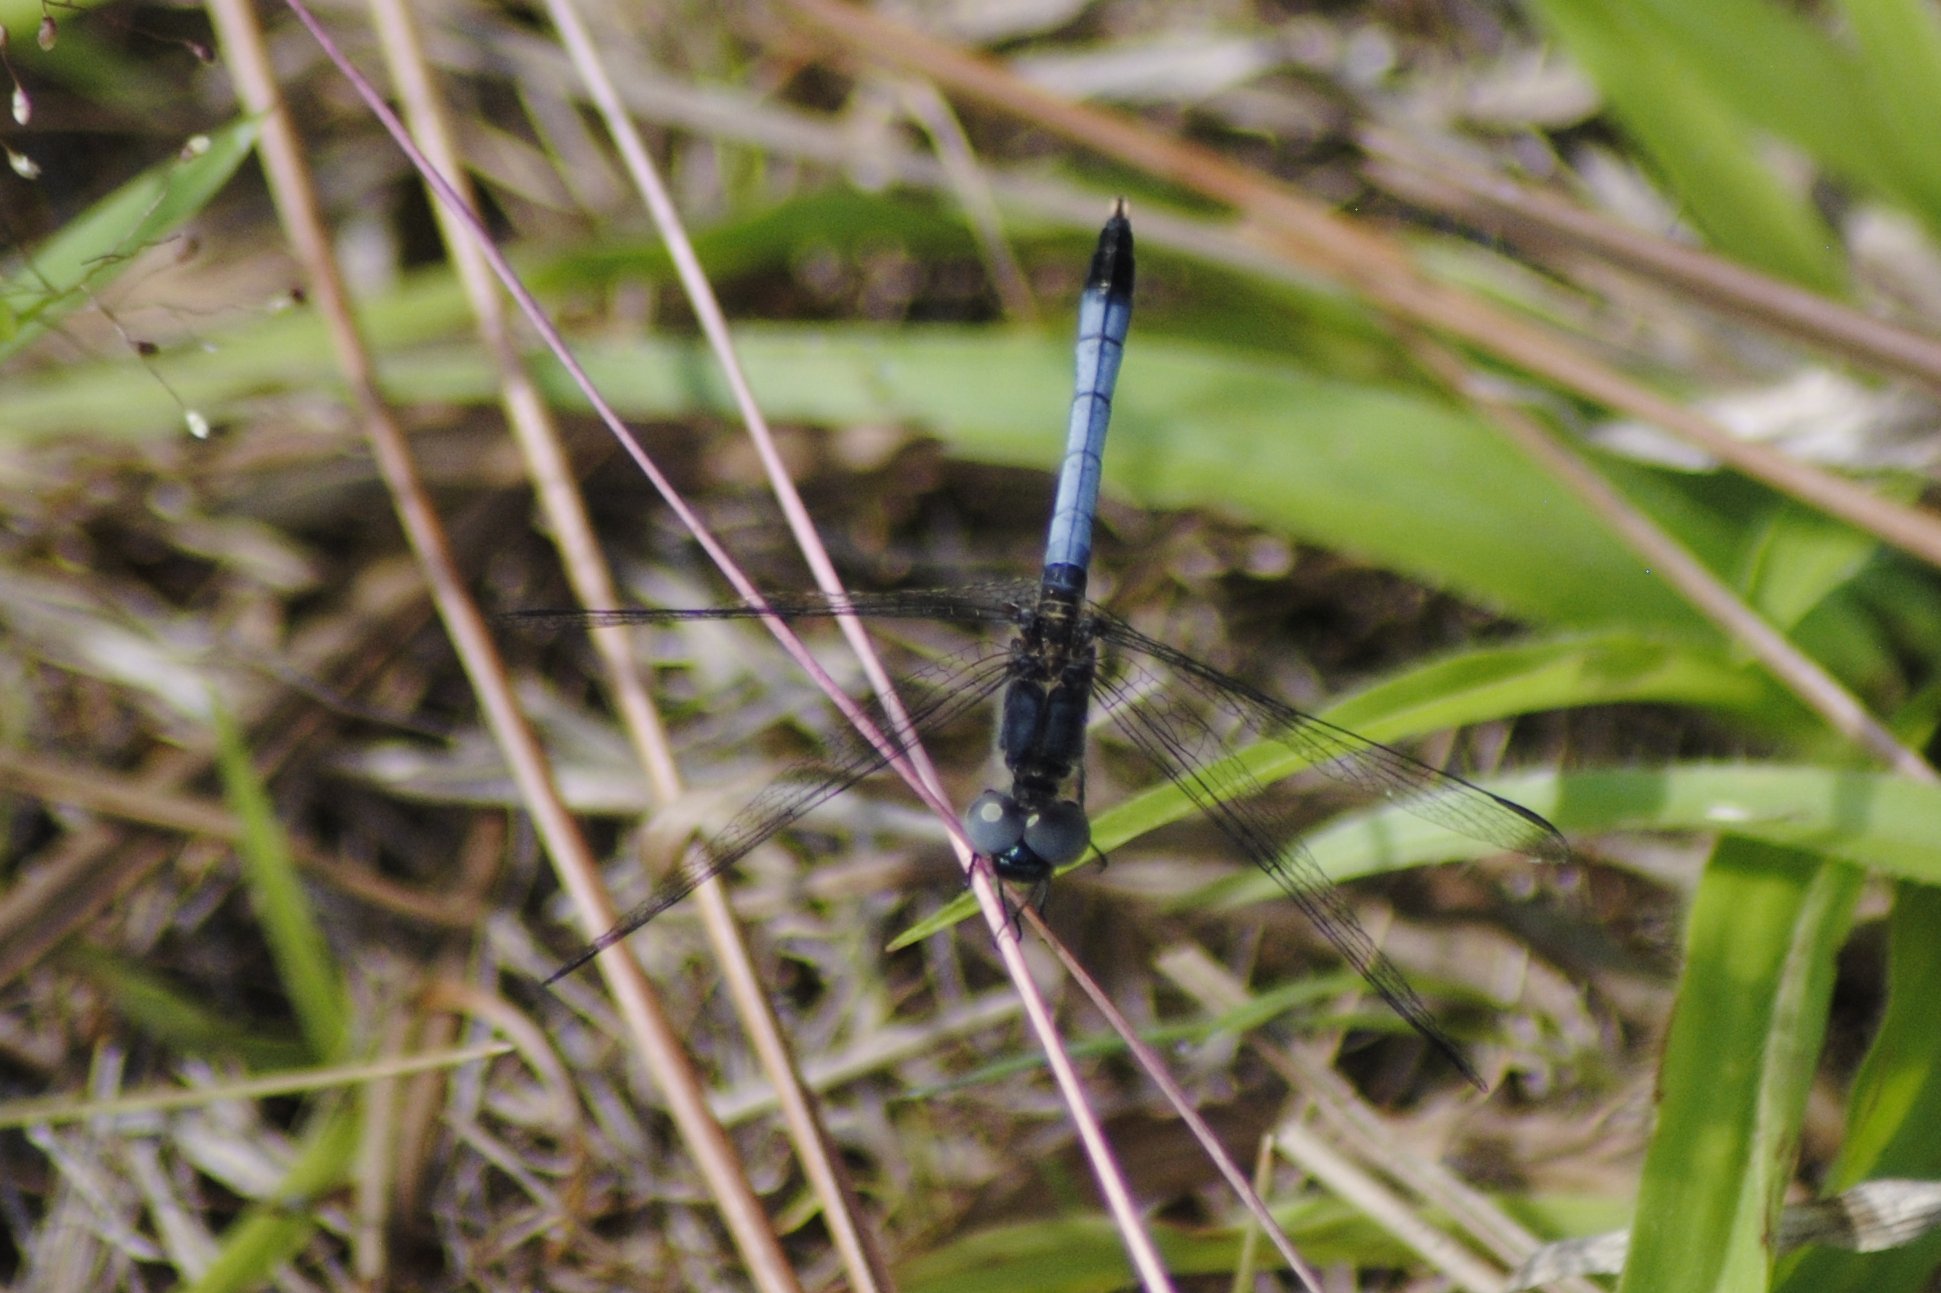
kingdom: Animalia
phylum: Arthropoda
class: Insecta
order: Odonata
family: Libellulidae
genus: Erythrodiplax
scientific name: Erythrodiplax minuscula
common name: Little blue dragonlet
